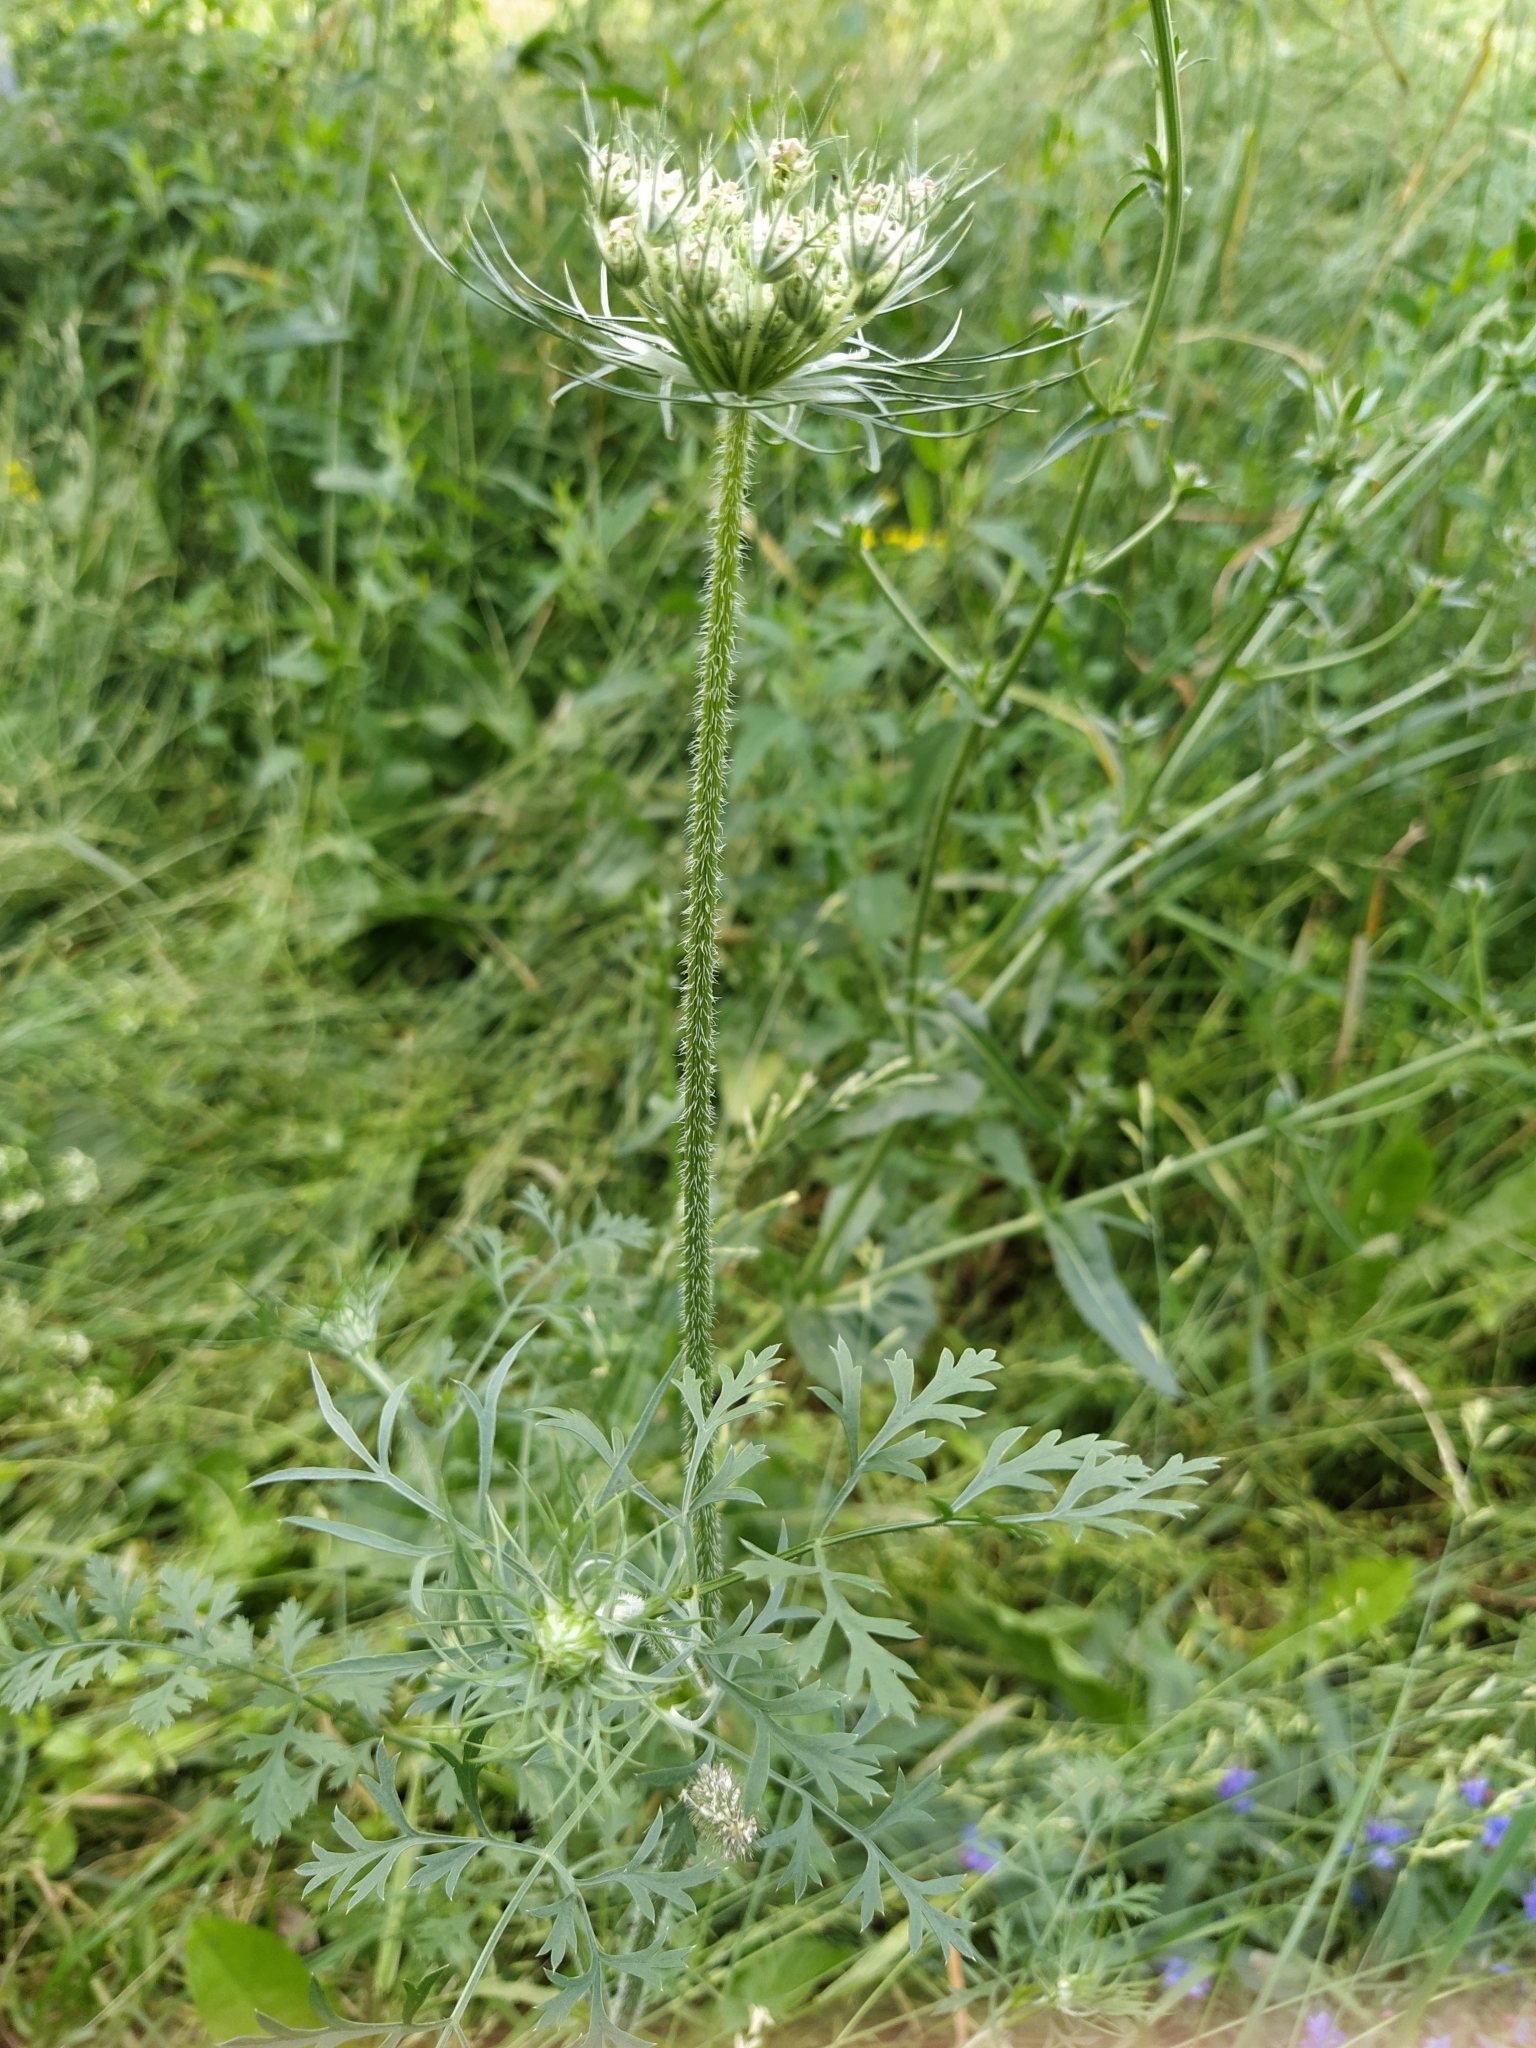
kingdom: Plantae
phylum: Tracheophyta
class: Magnoliopsida
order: Apiales
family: Apiaceae
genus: Daucus
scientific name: Daucus carota
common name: Wild carrot
